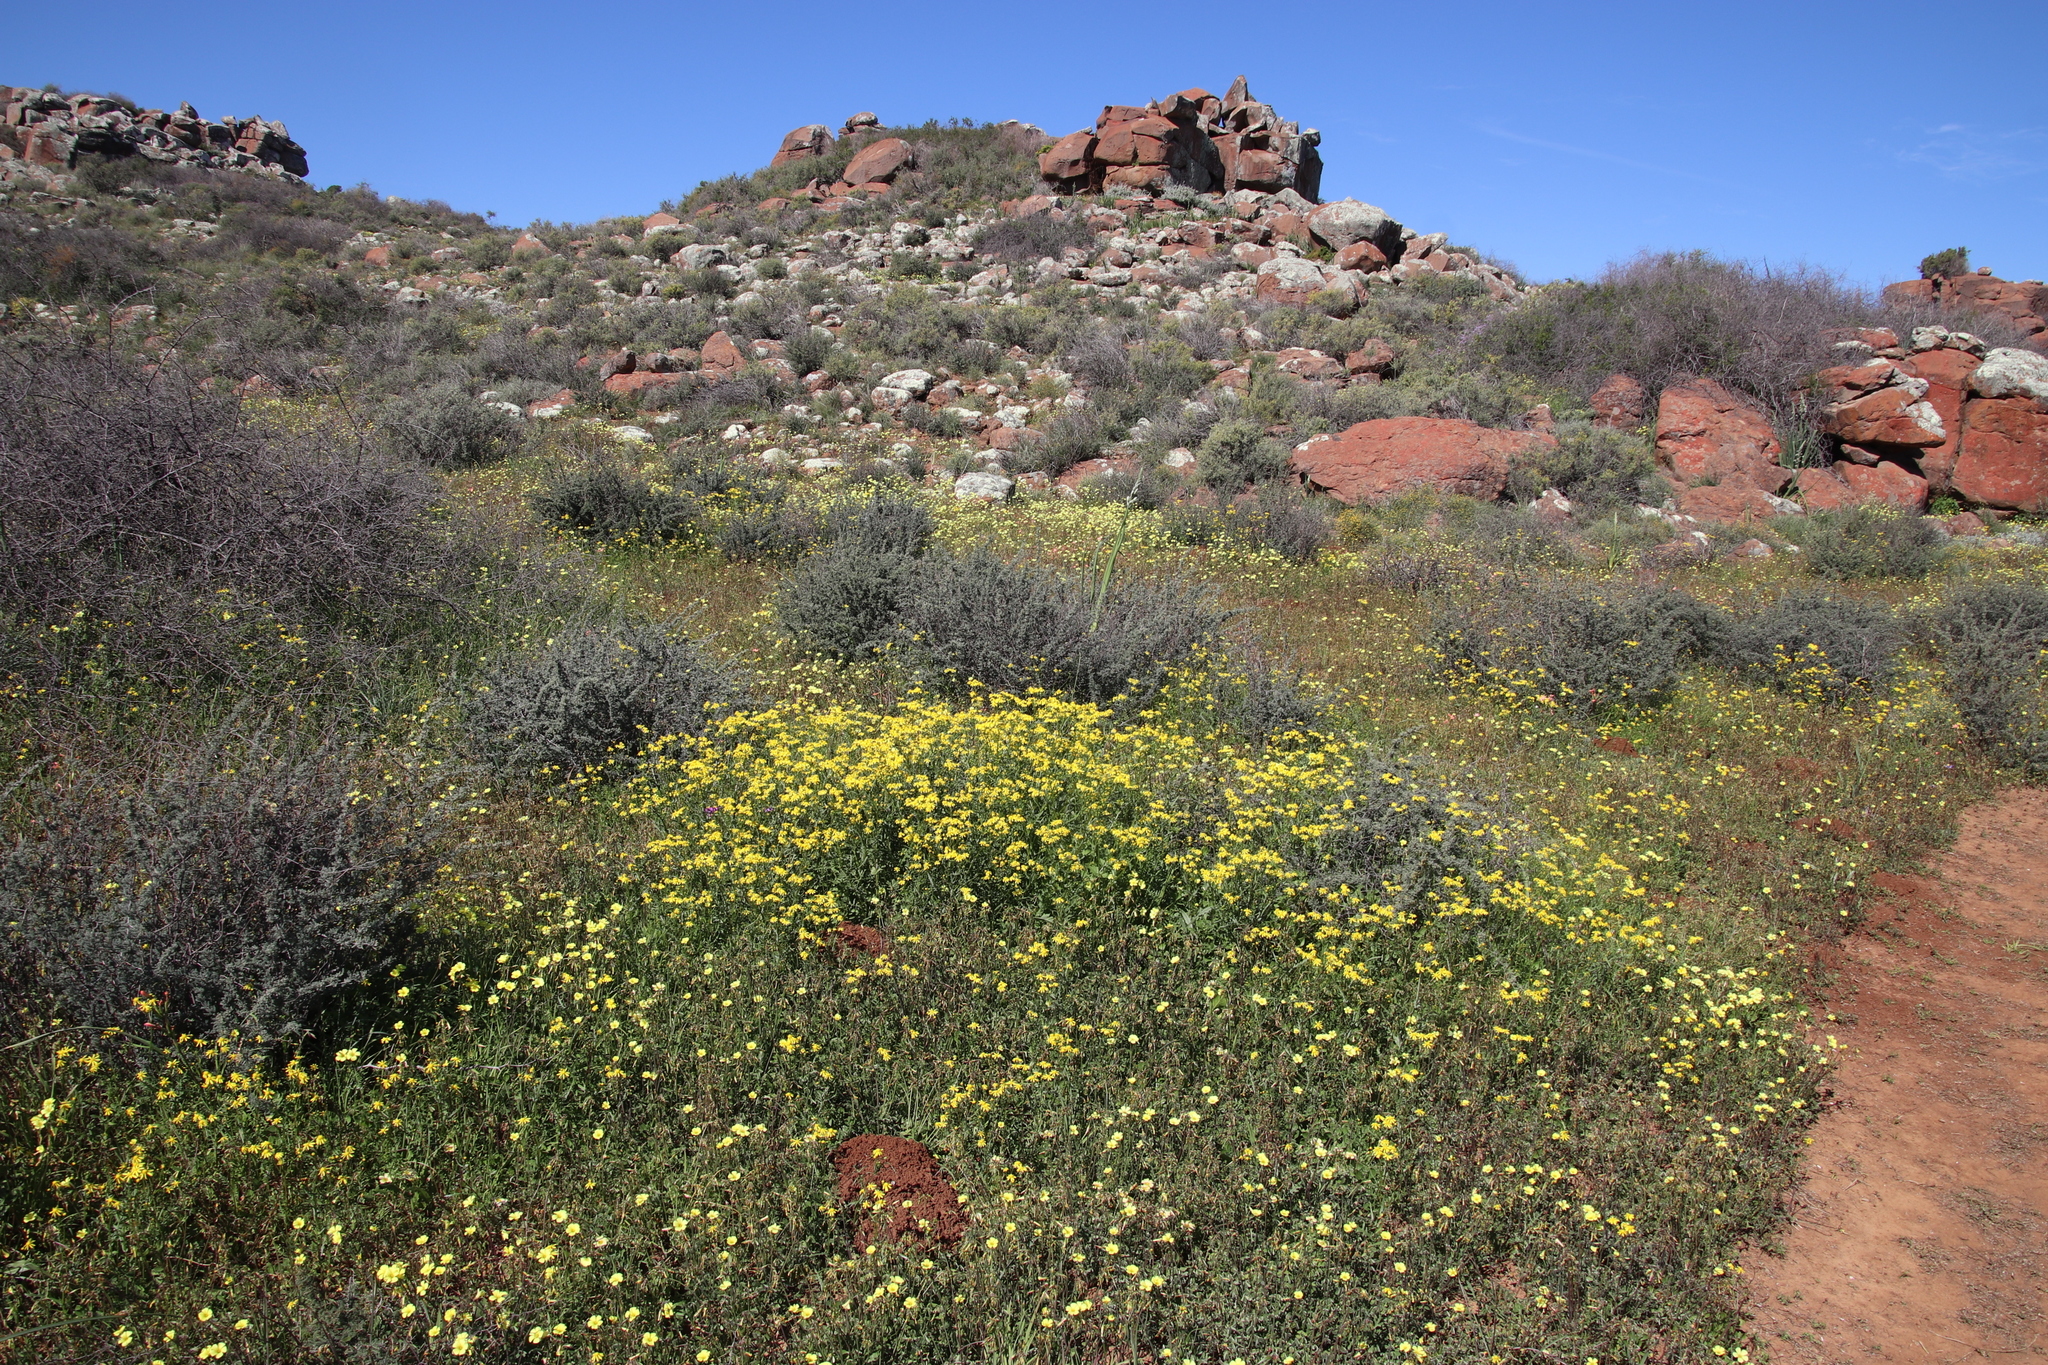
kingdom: Plantae
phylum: Tracheophyta
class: Magnoliopsida
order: Asterales
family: Asteraceae
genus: Senecio
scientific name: Senecio abruptus
